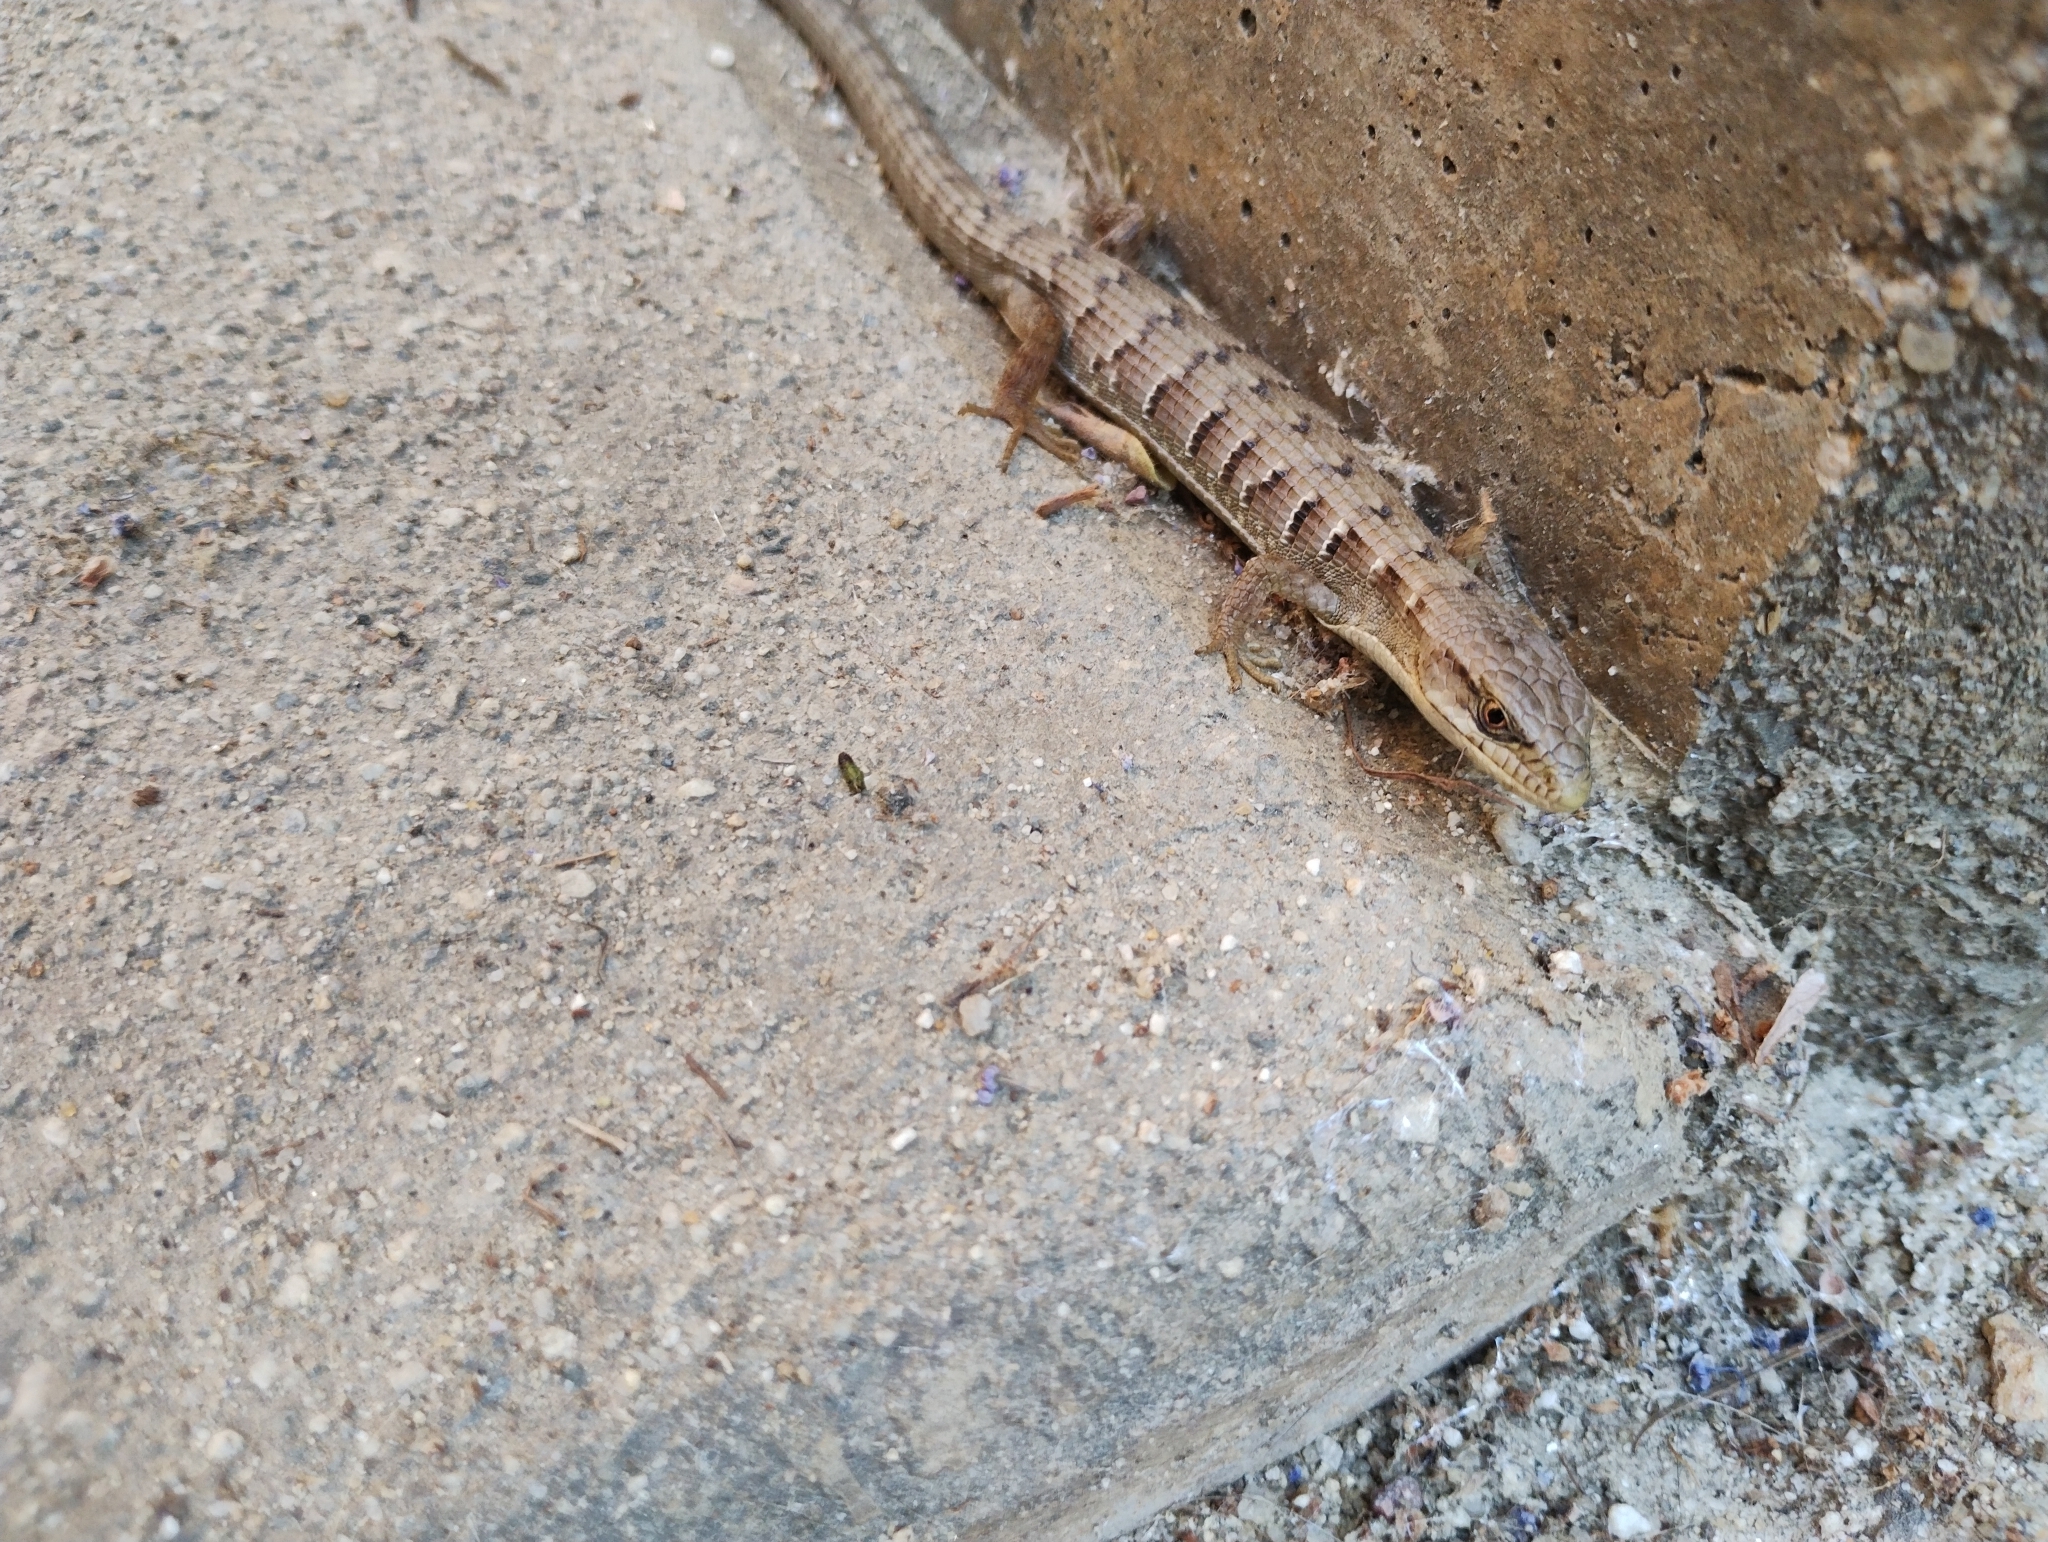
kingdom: Animalia
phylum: Chordata
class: Squamata
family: Anguidae
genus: Elgaria
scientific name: Elgaria multicarinata
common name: Southern alligator lizard
